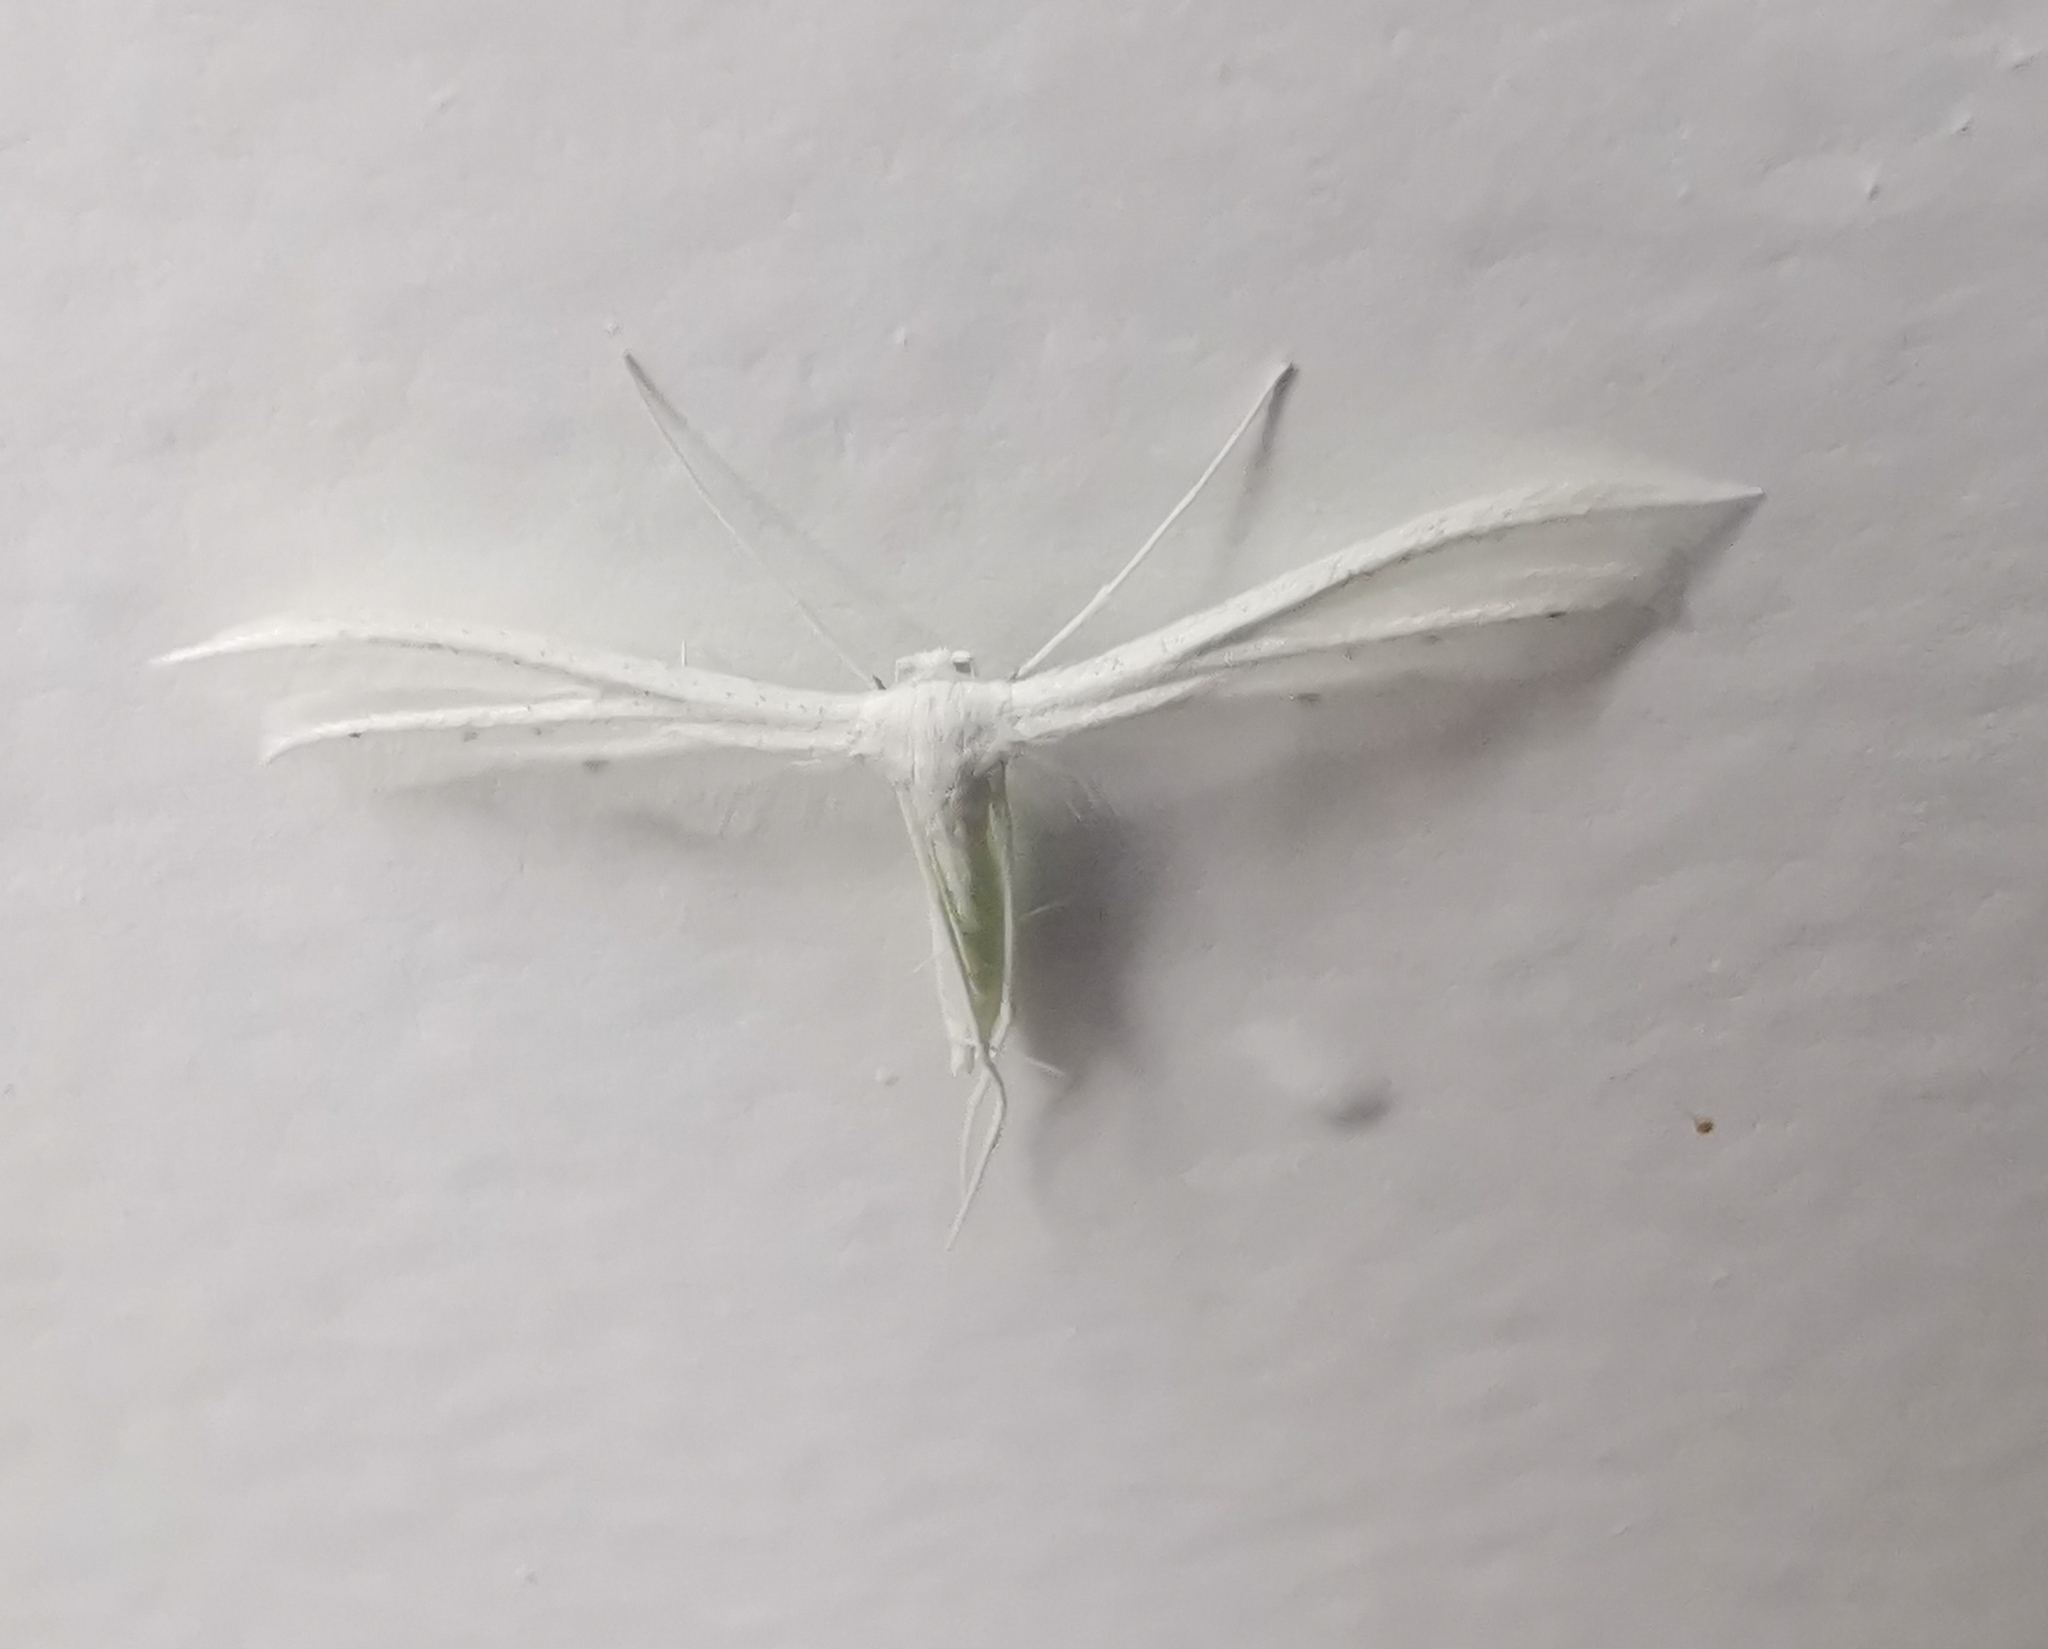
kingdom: Animalia
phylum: Arthropoda
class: Insecta
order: Lepidoptera
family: Pterophoridae
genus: Pterophorus
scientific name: Pterophorus pentadactyla
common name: White plume moth
